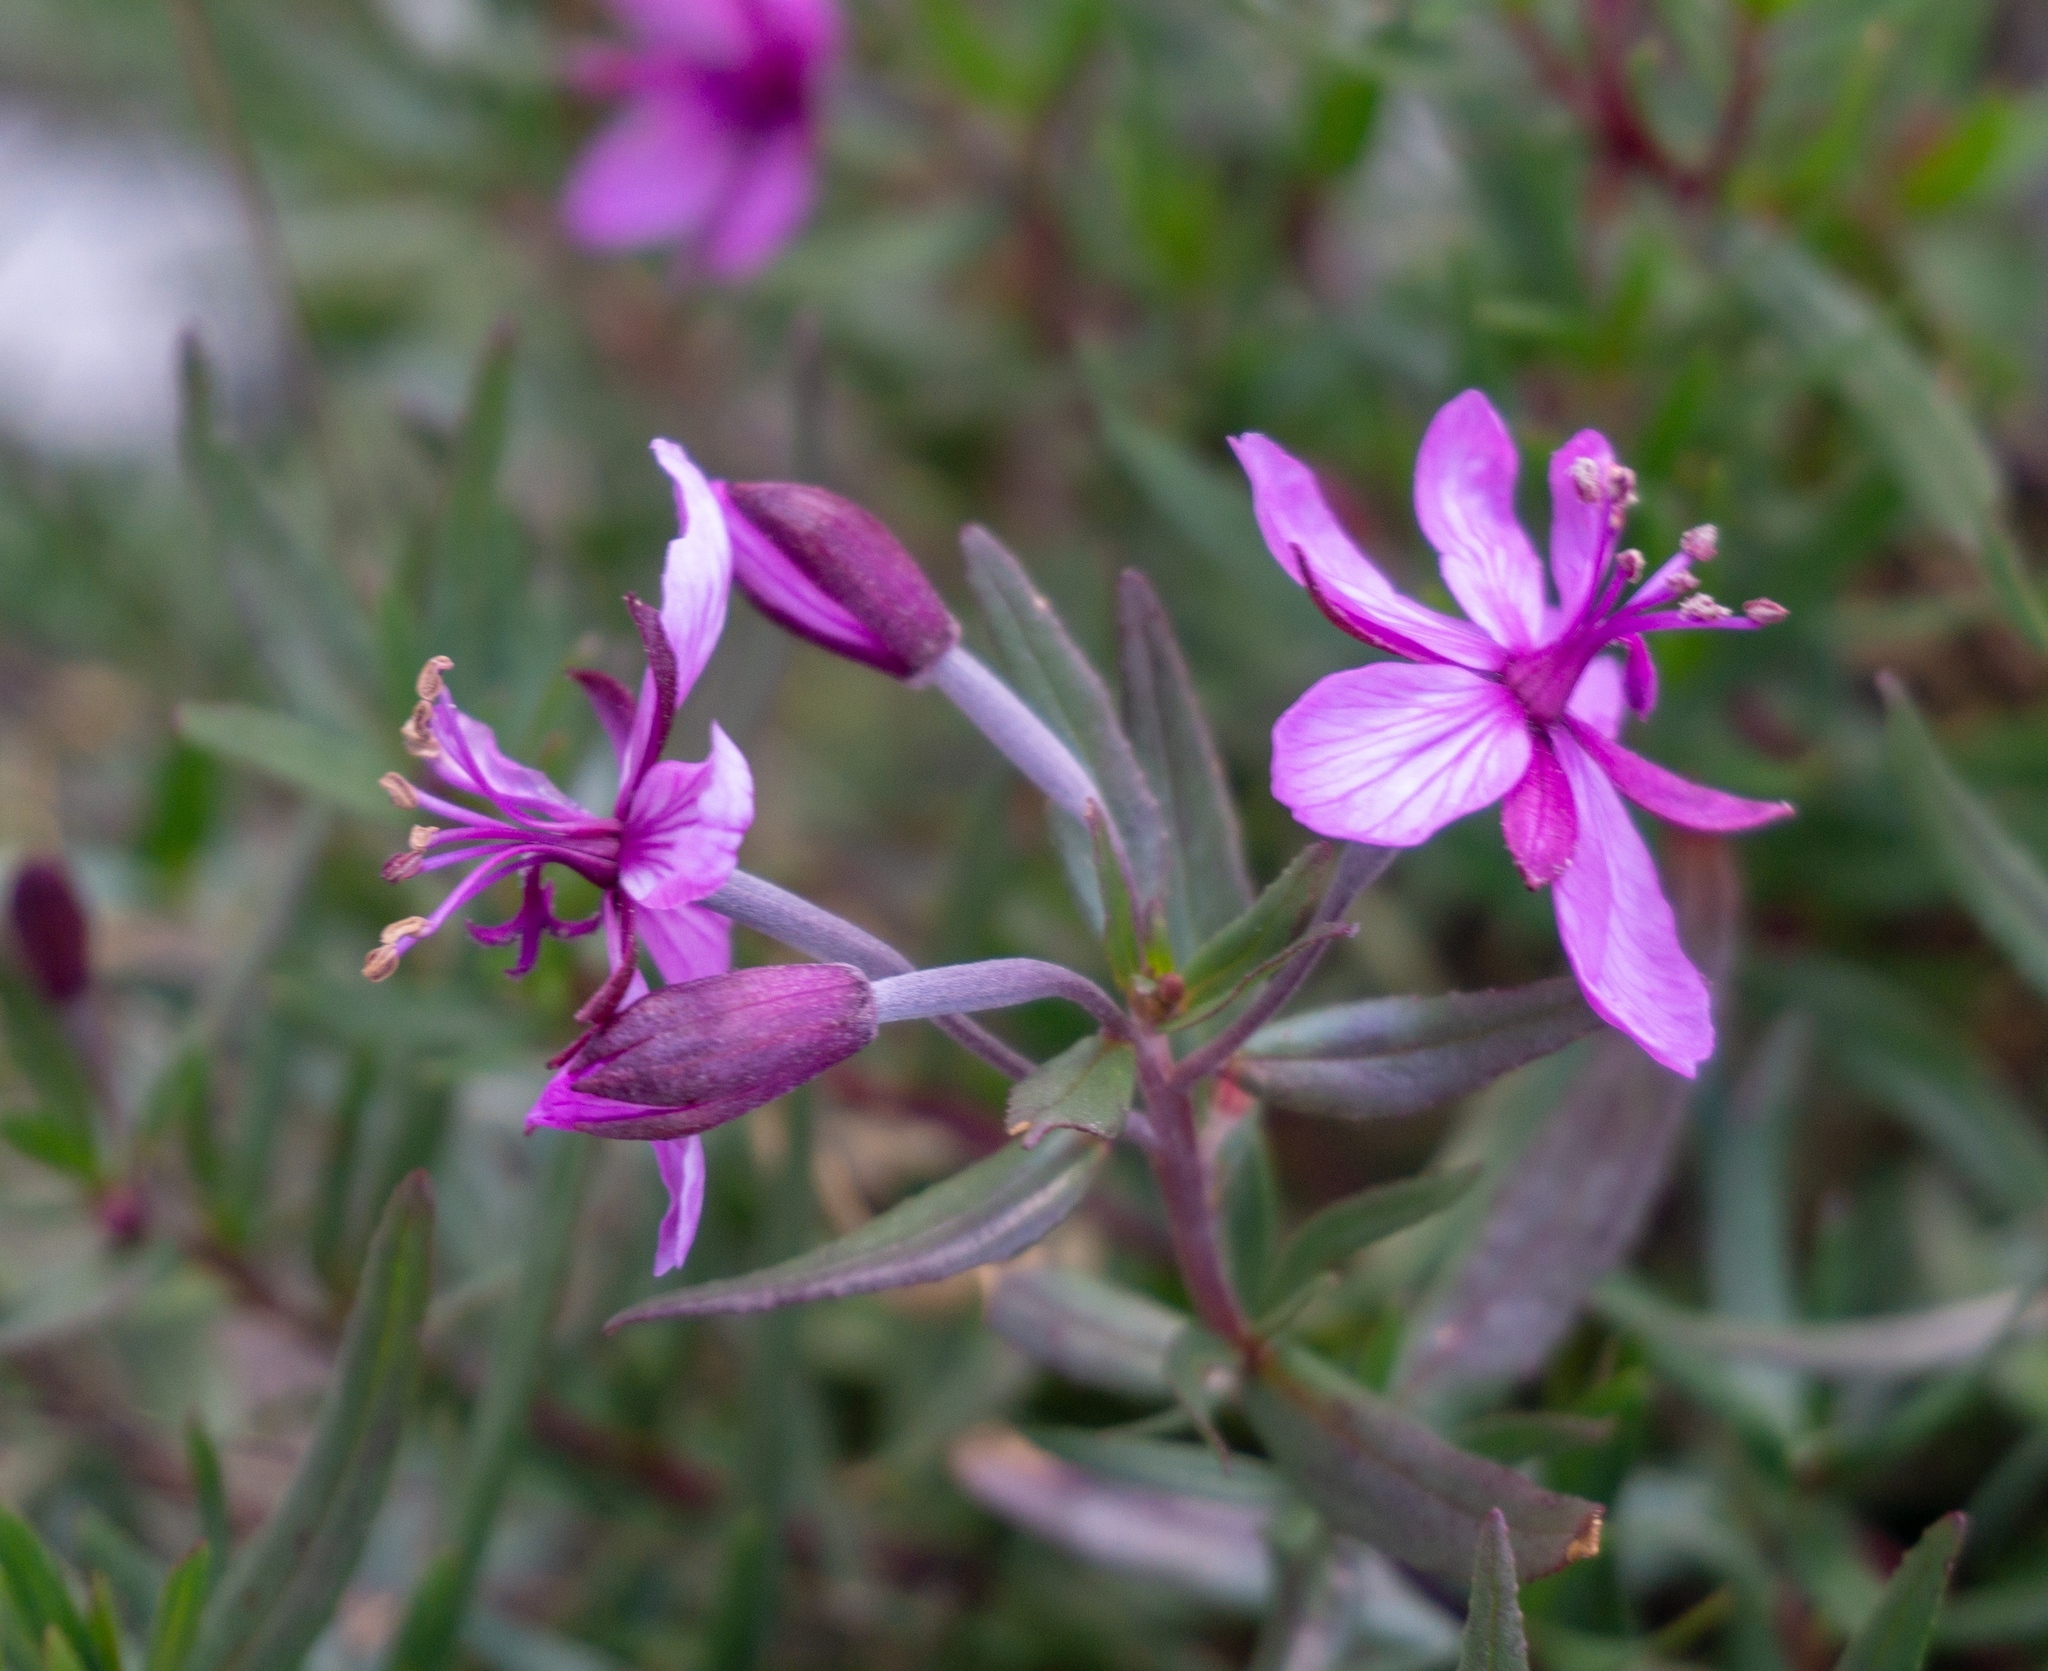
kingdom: Plantae
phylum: Tracheophyta
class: Magnoliopsida
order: Myrtales
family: Onagraceae
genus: Chamaenerion
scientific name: Chamaenerion fleischeri
